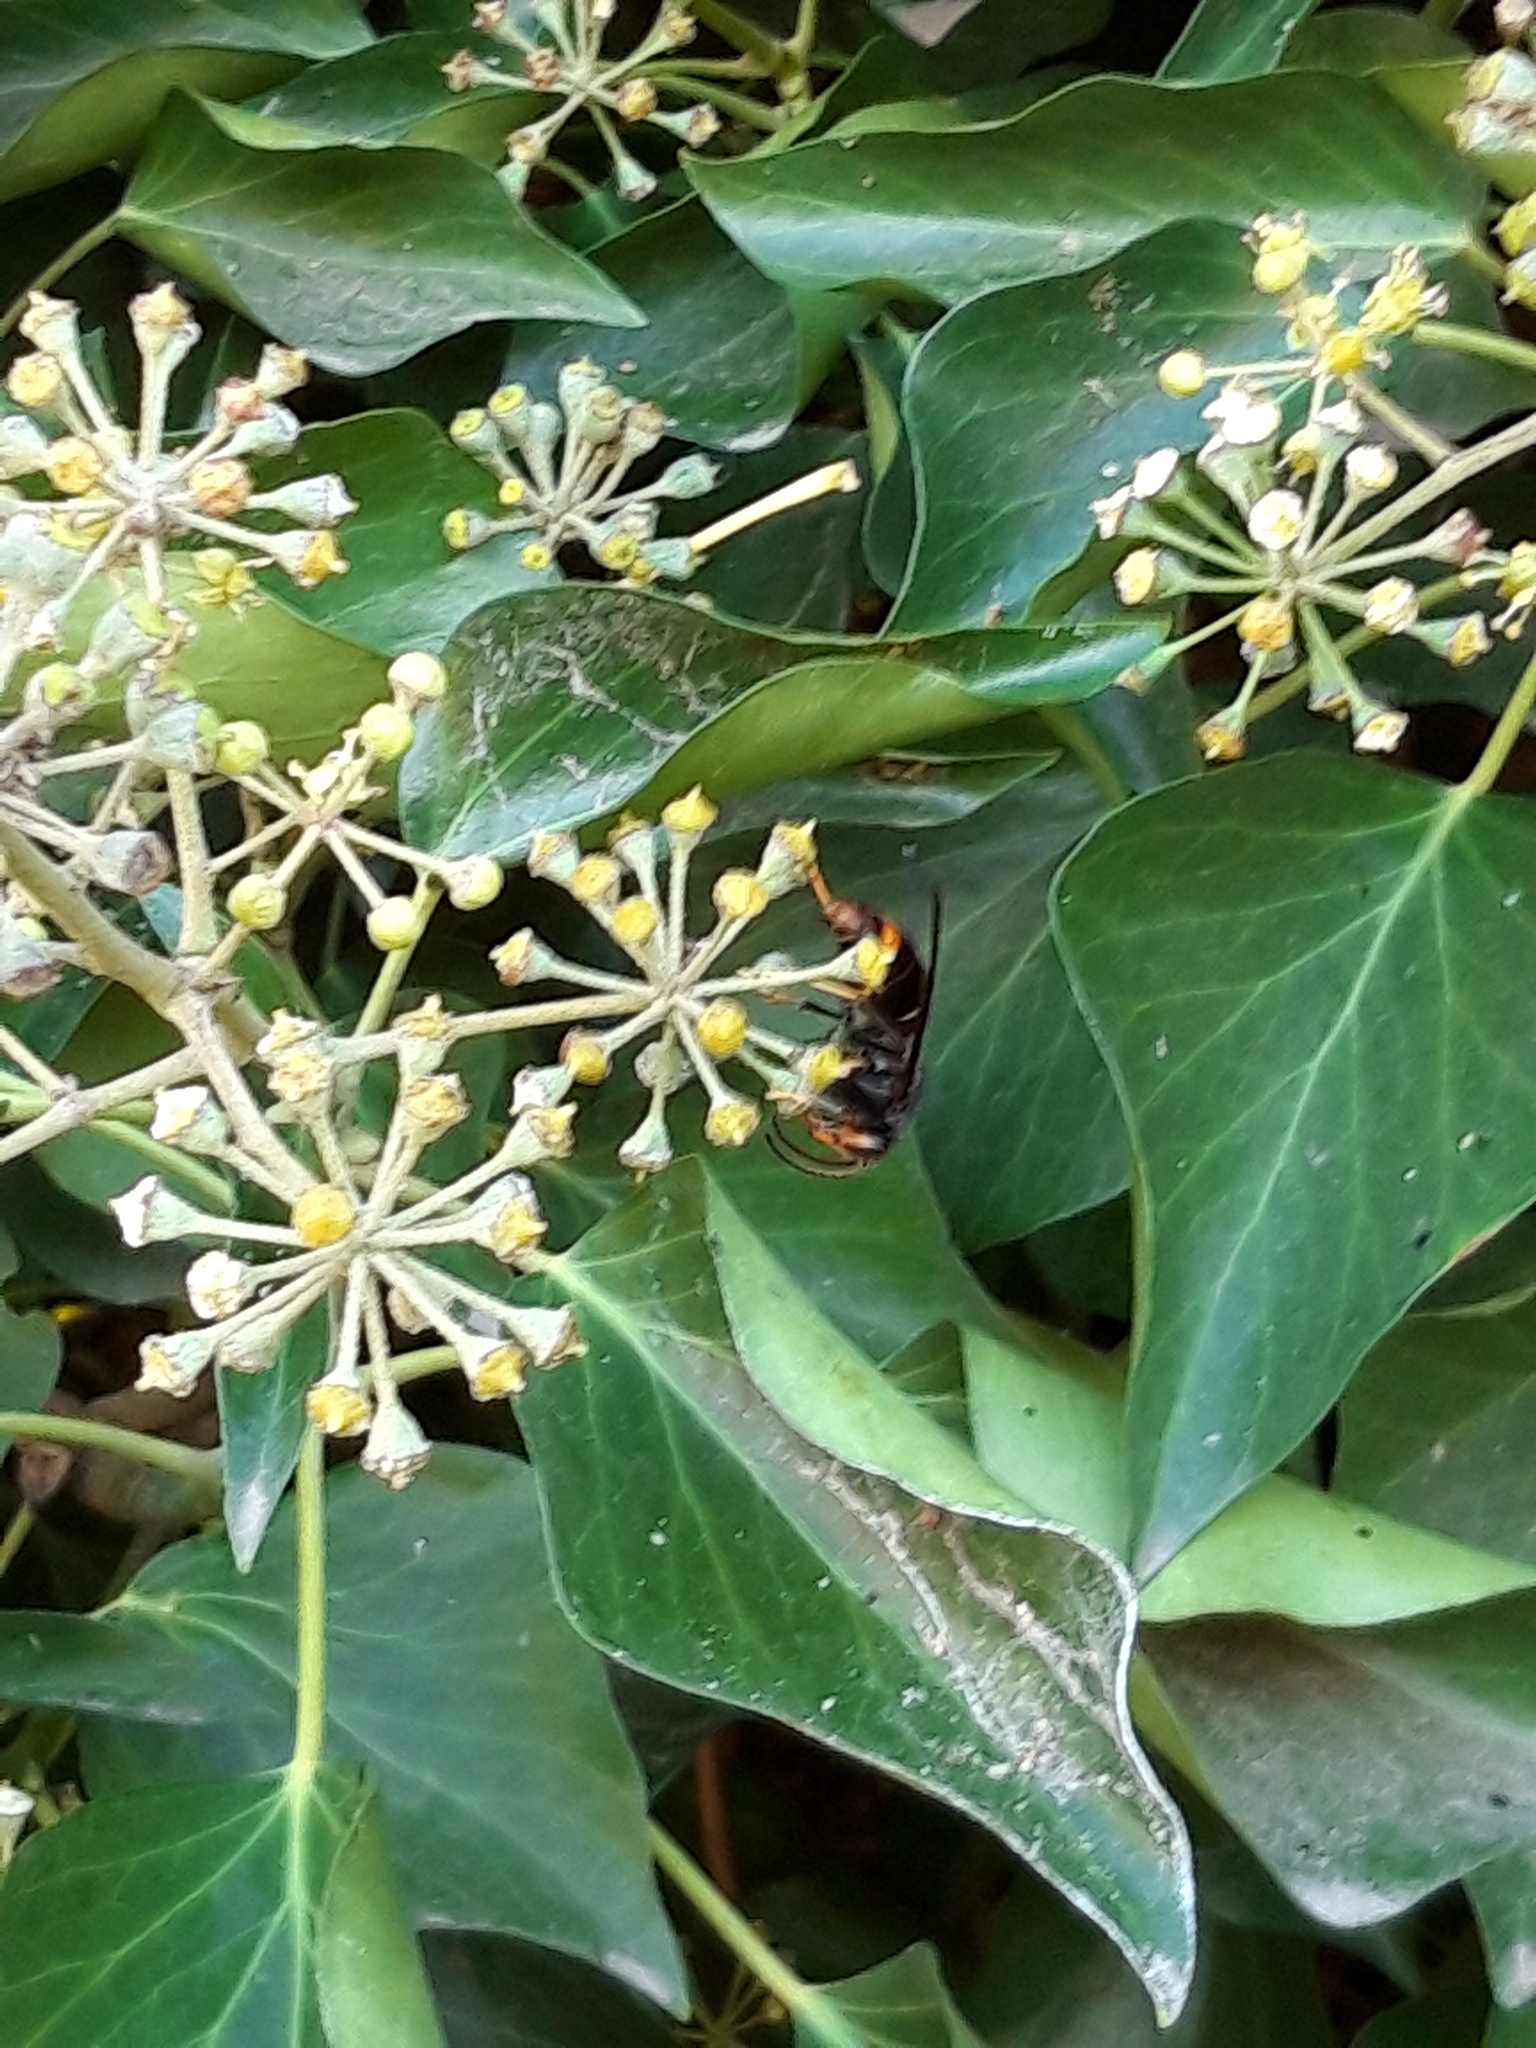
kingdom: Animalia
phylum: Arthropoda
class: Insecta
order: Hymenoptera
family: Vespidae
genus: Vespa
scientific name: Vespa velutina
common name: Asian hornet
